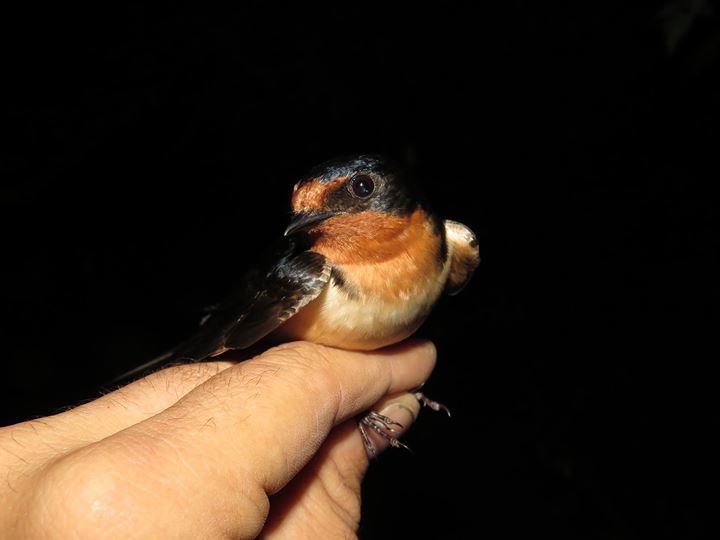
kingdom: Animalia
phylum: Chordata
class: Aves
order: Passeriformes
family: Hirundinidae
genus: Hirundo
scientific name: Hirundo rustica
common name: Barn swallow
